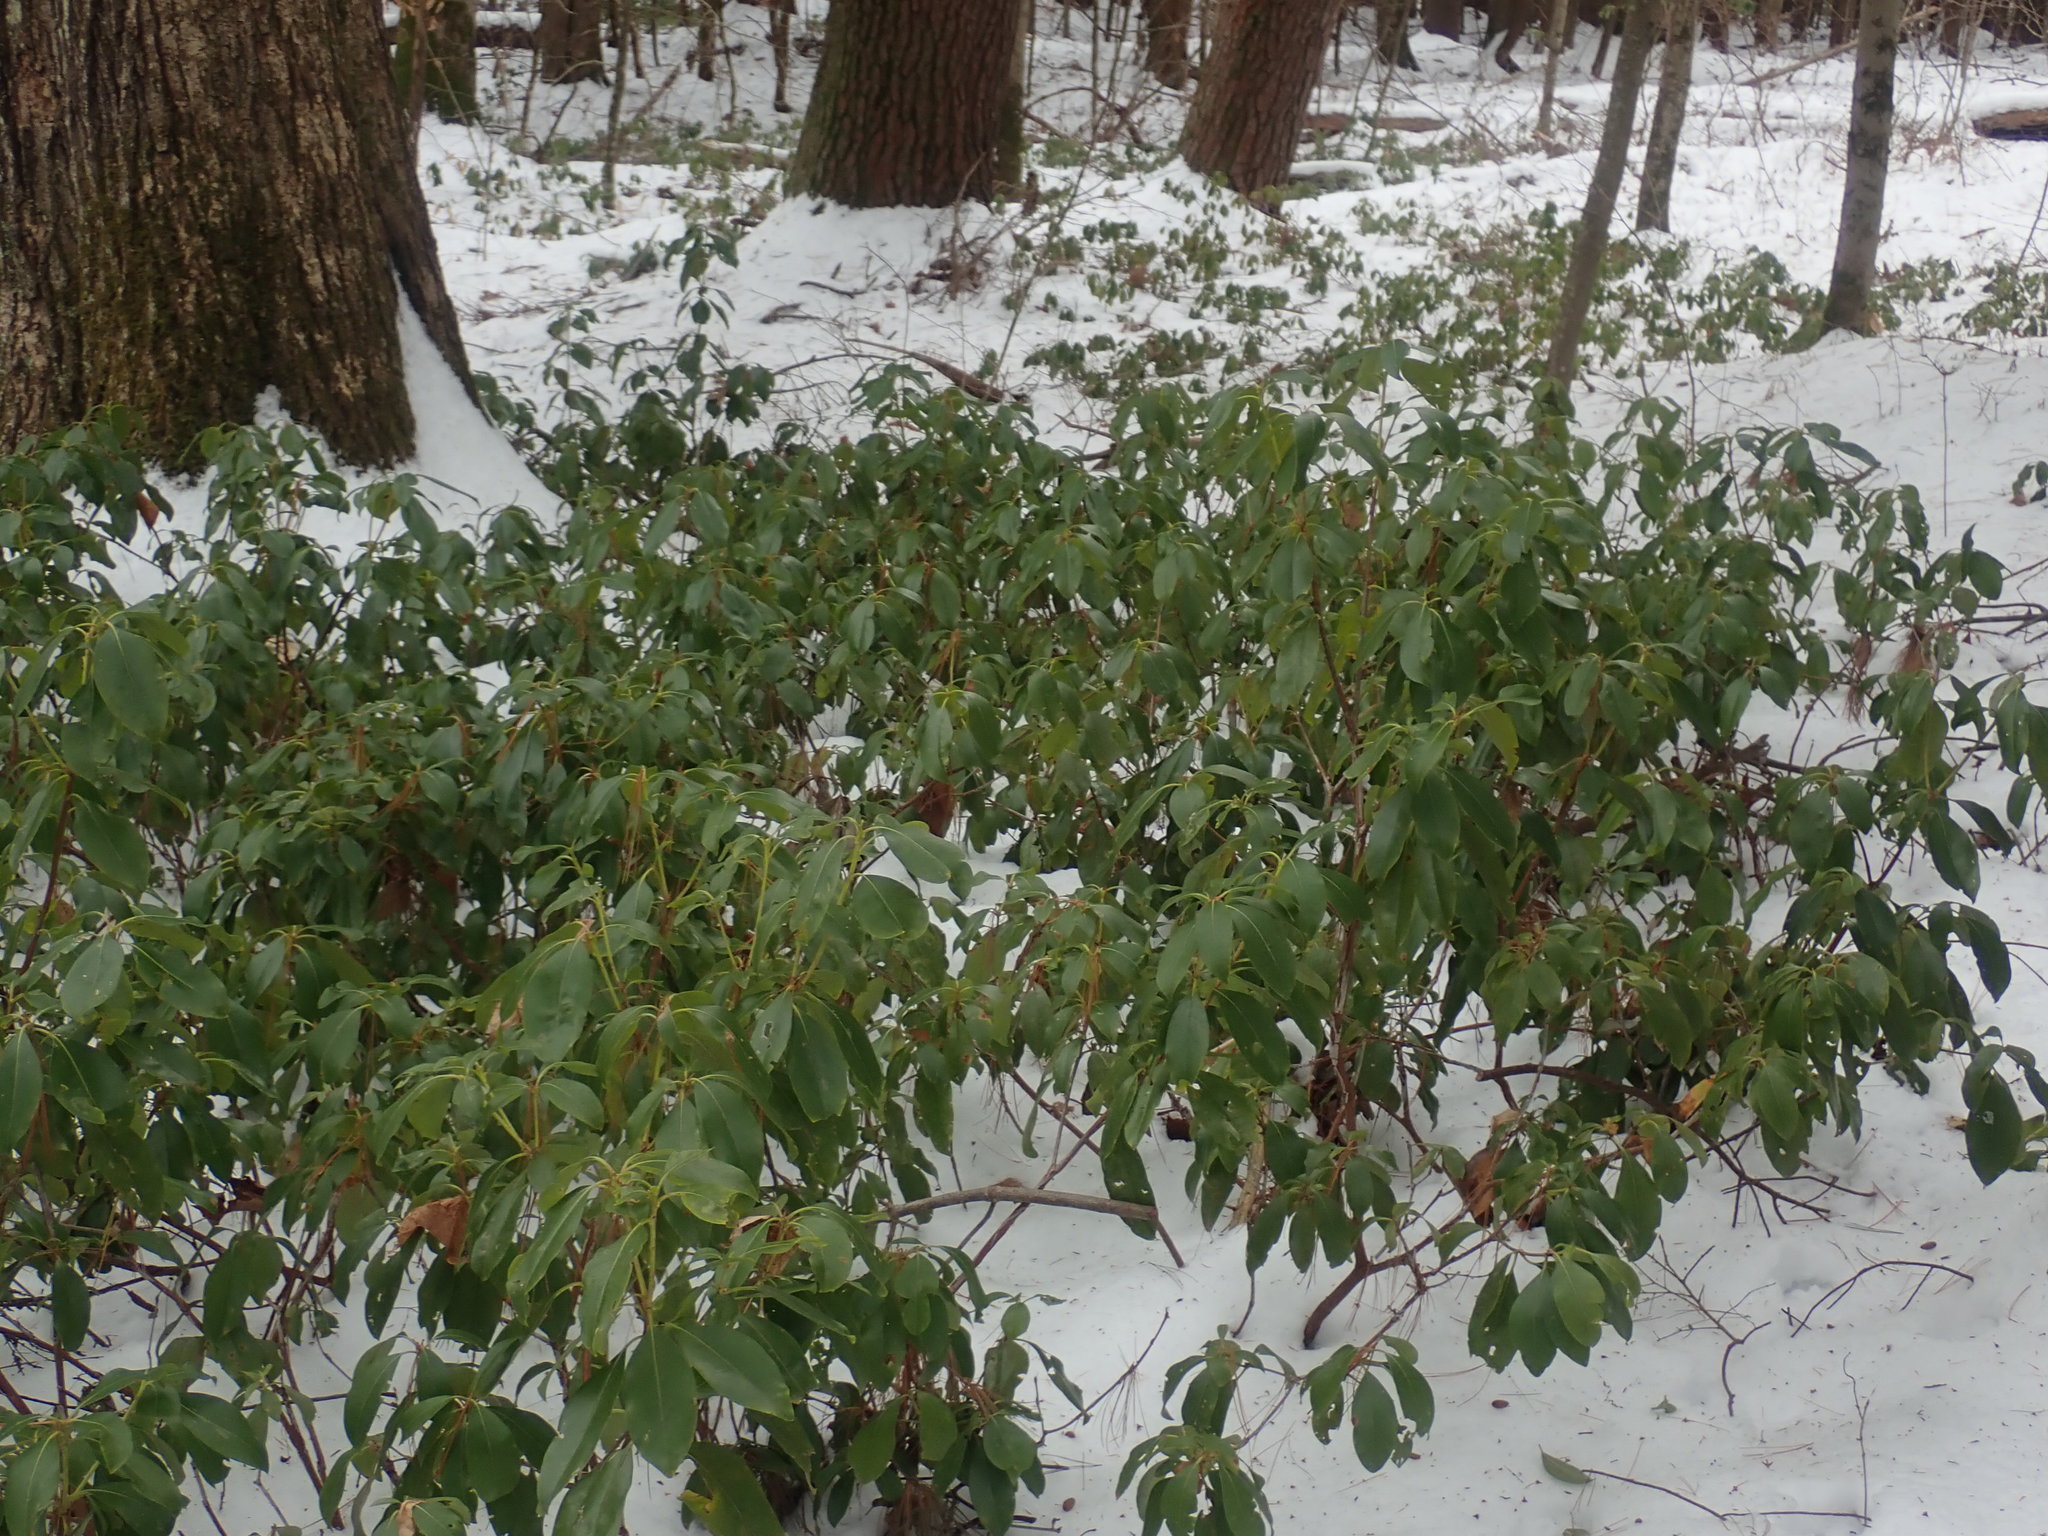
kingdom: Plantae
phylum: Tracheophyta
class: Magnoliopsida
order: Ericales
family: Ericaceae
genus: Kalmia
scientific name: Kalmia latifolia
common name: Mountain-laurel
